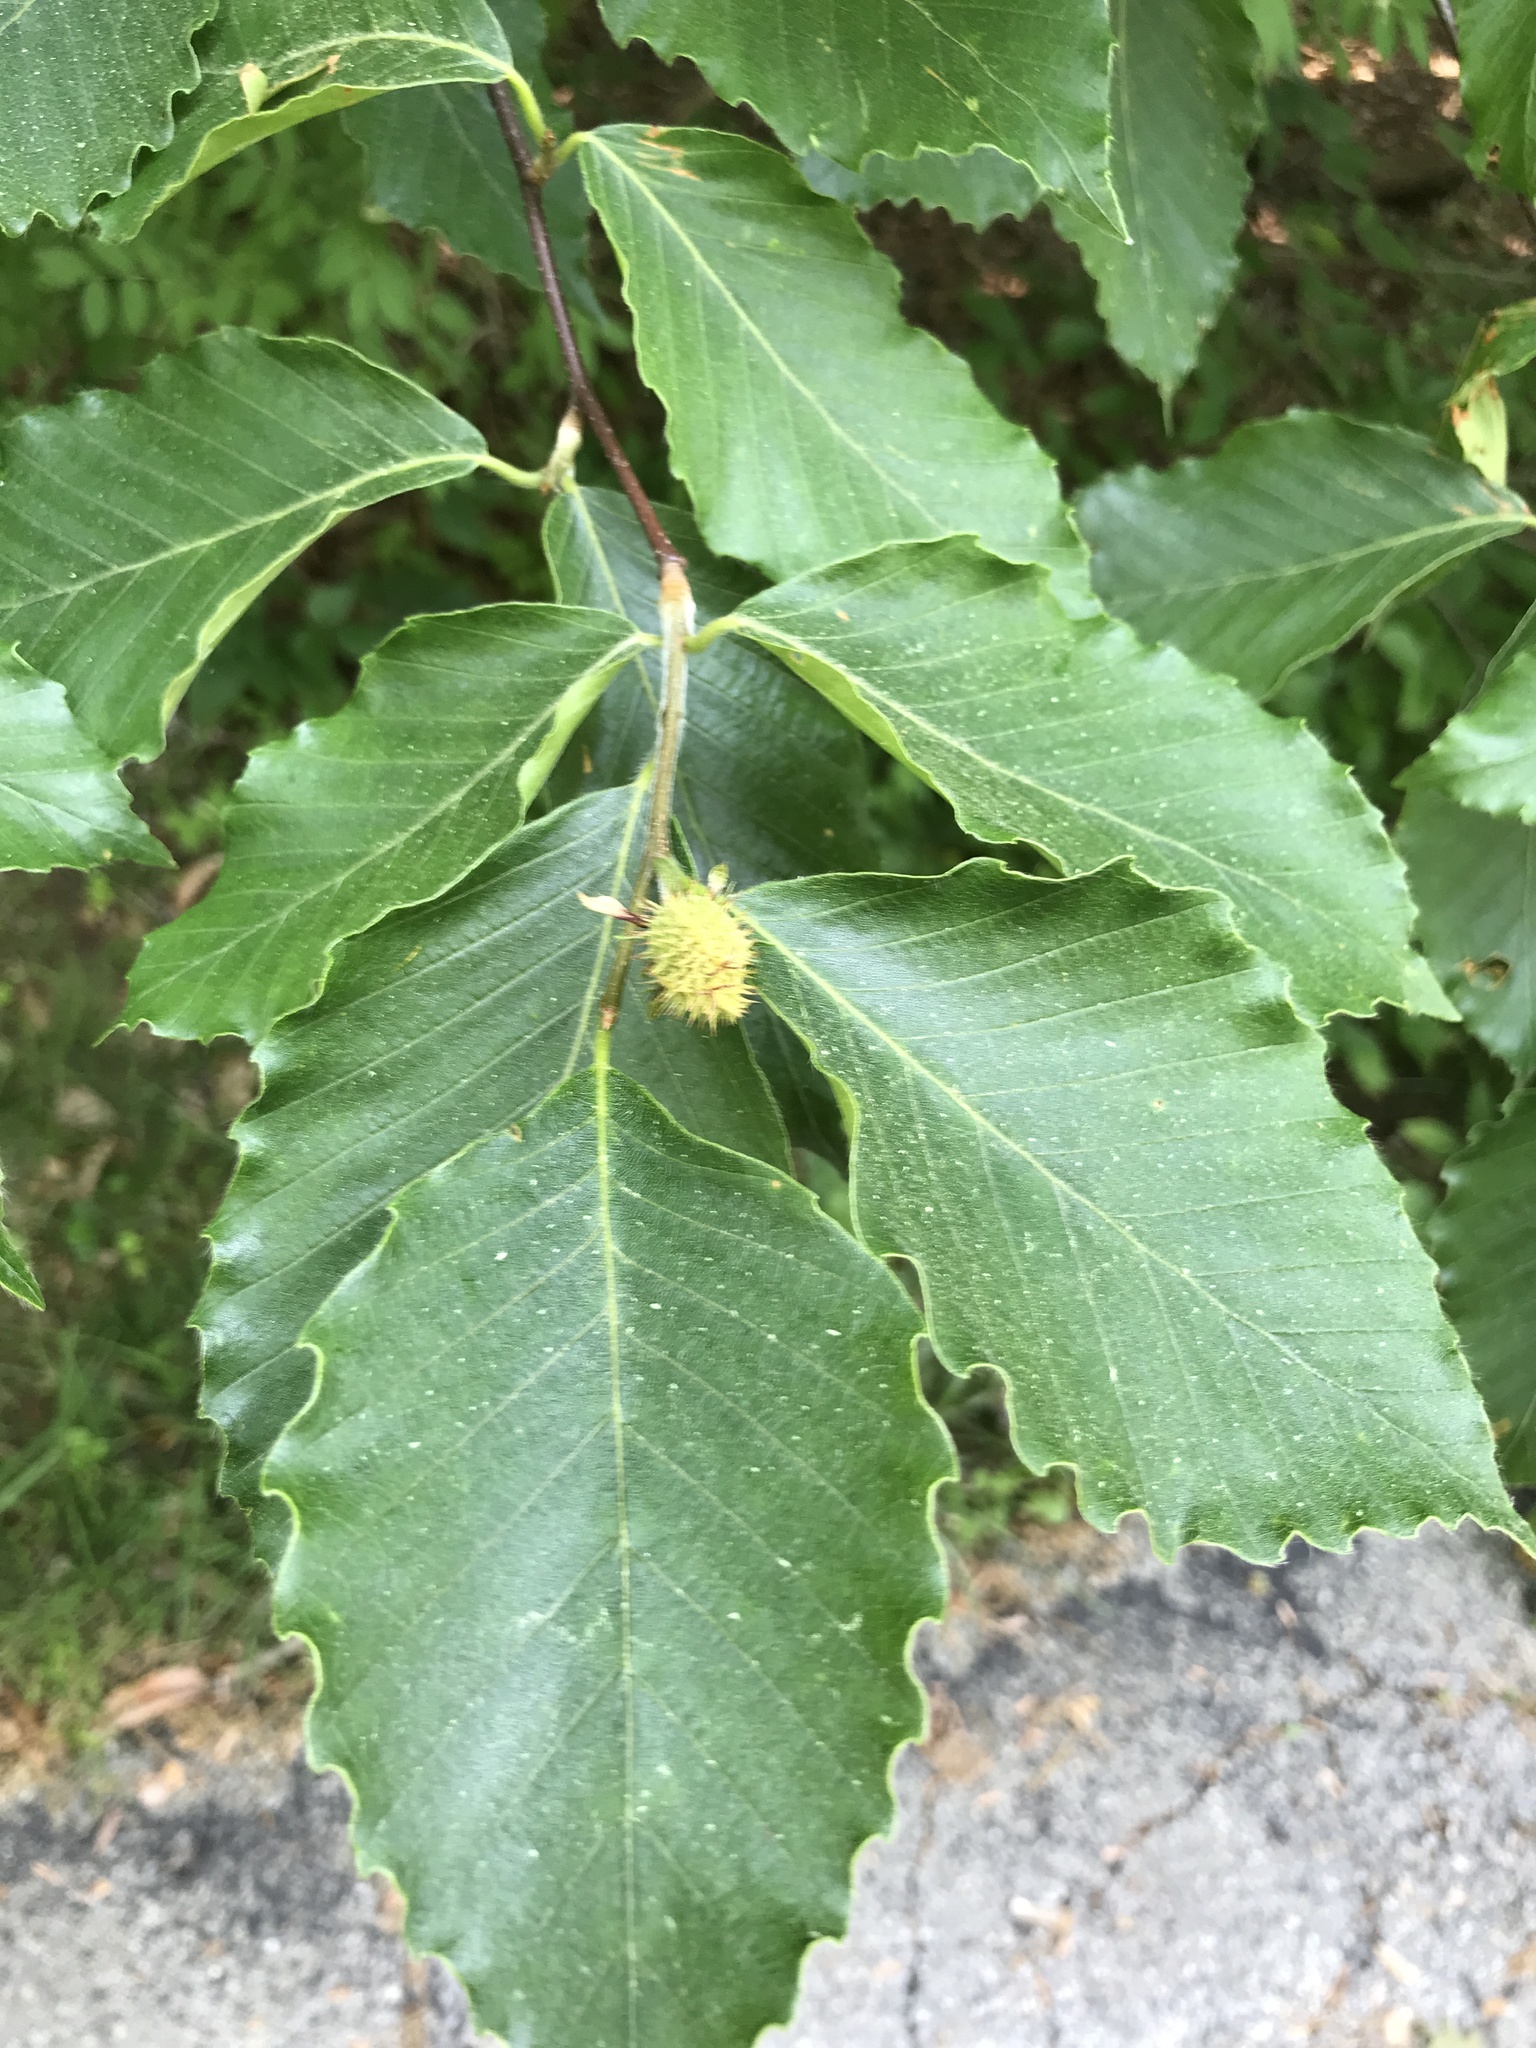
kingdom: Plantae
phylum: Tracheophyta
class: Magnoliopsida
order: Fagales
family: Fagaceae
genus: Fagus
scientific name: Fagus grandifolia
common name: American beech
